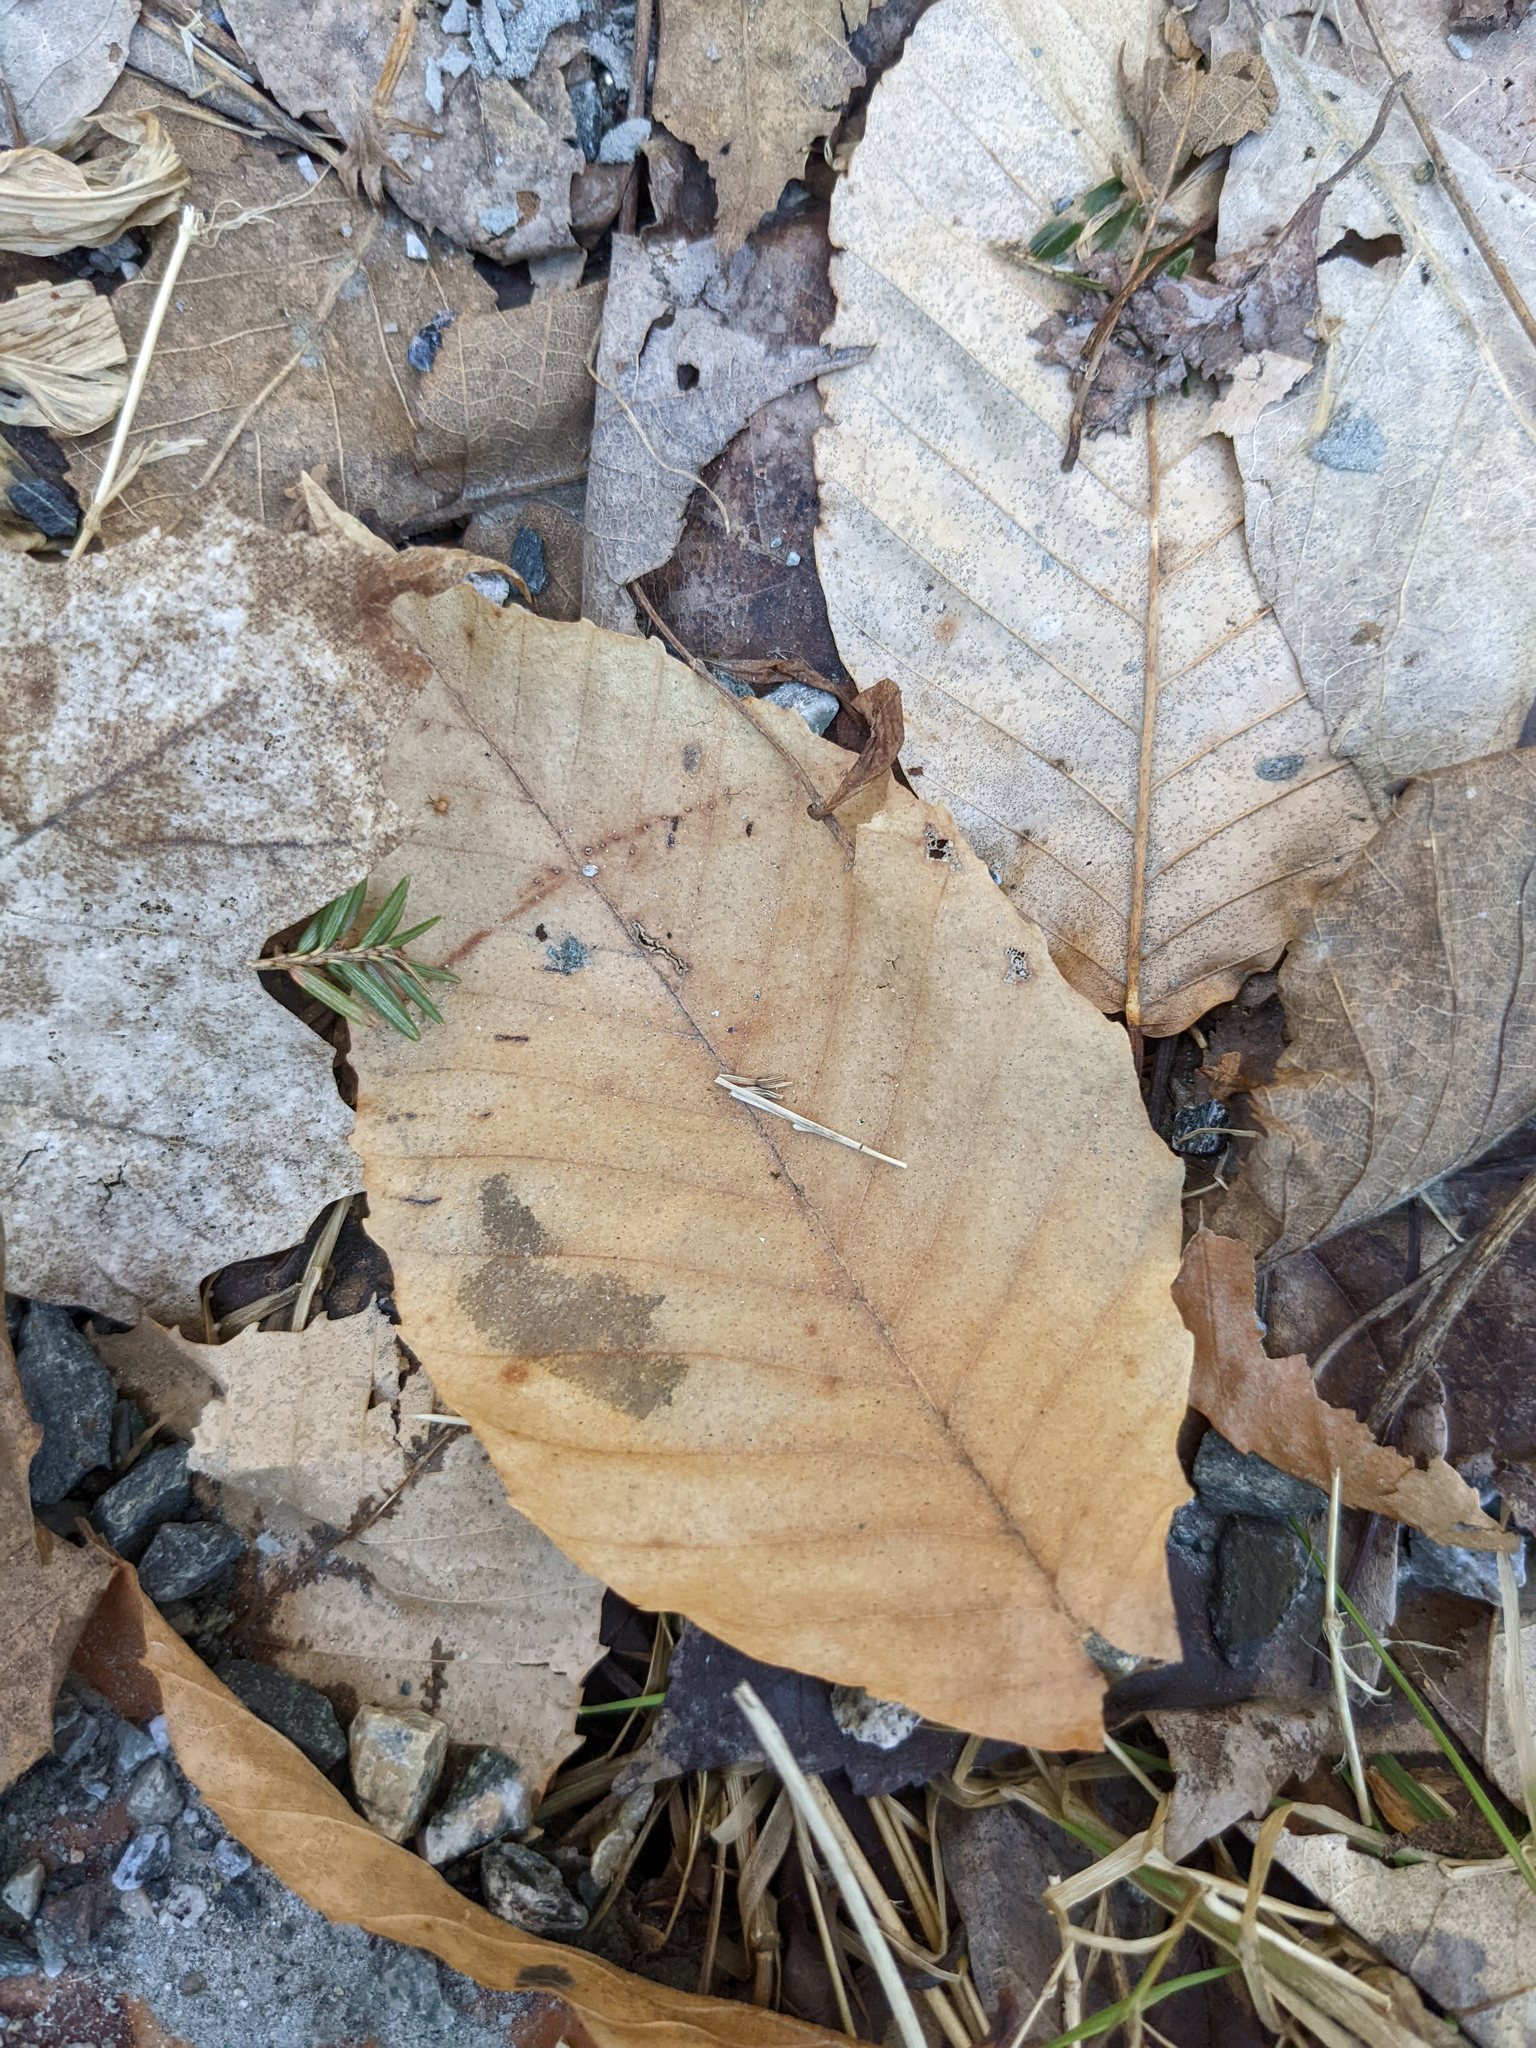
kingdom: Plantae
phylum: Tracheophyta
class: Magnoliopsida
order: Fagales
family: Fagaceae
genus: Fagus
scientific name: Fagus grandifolia
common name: American beech
